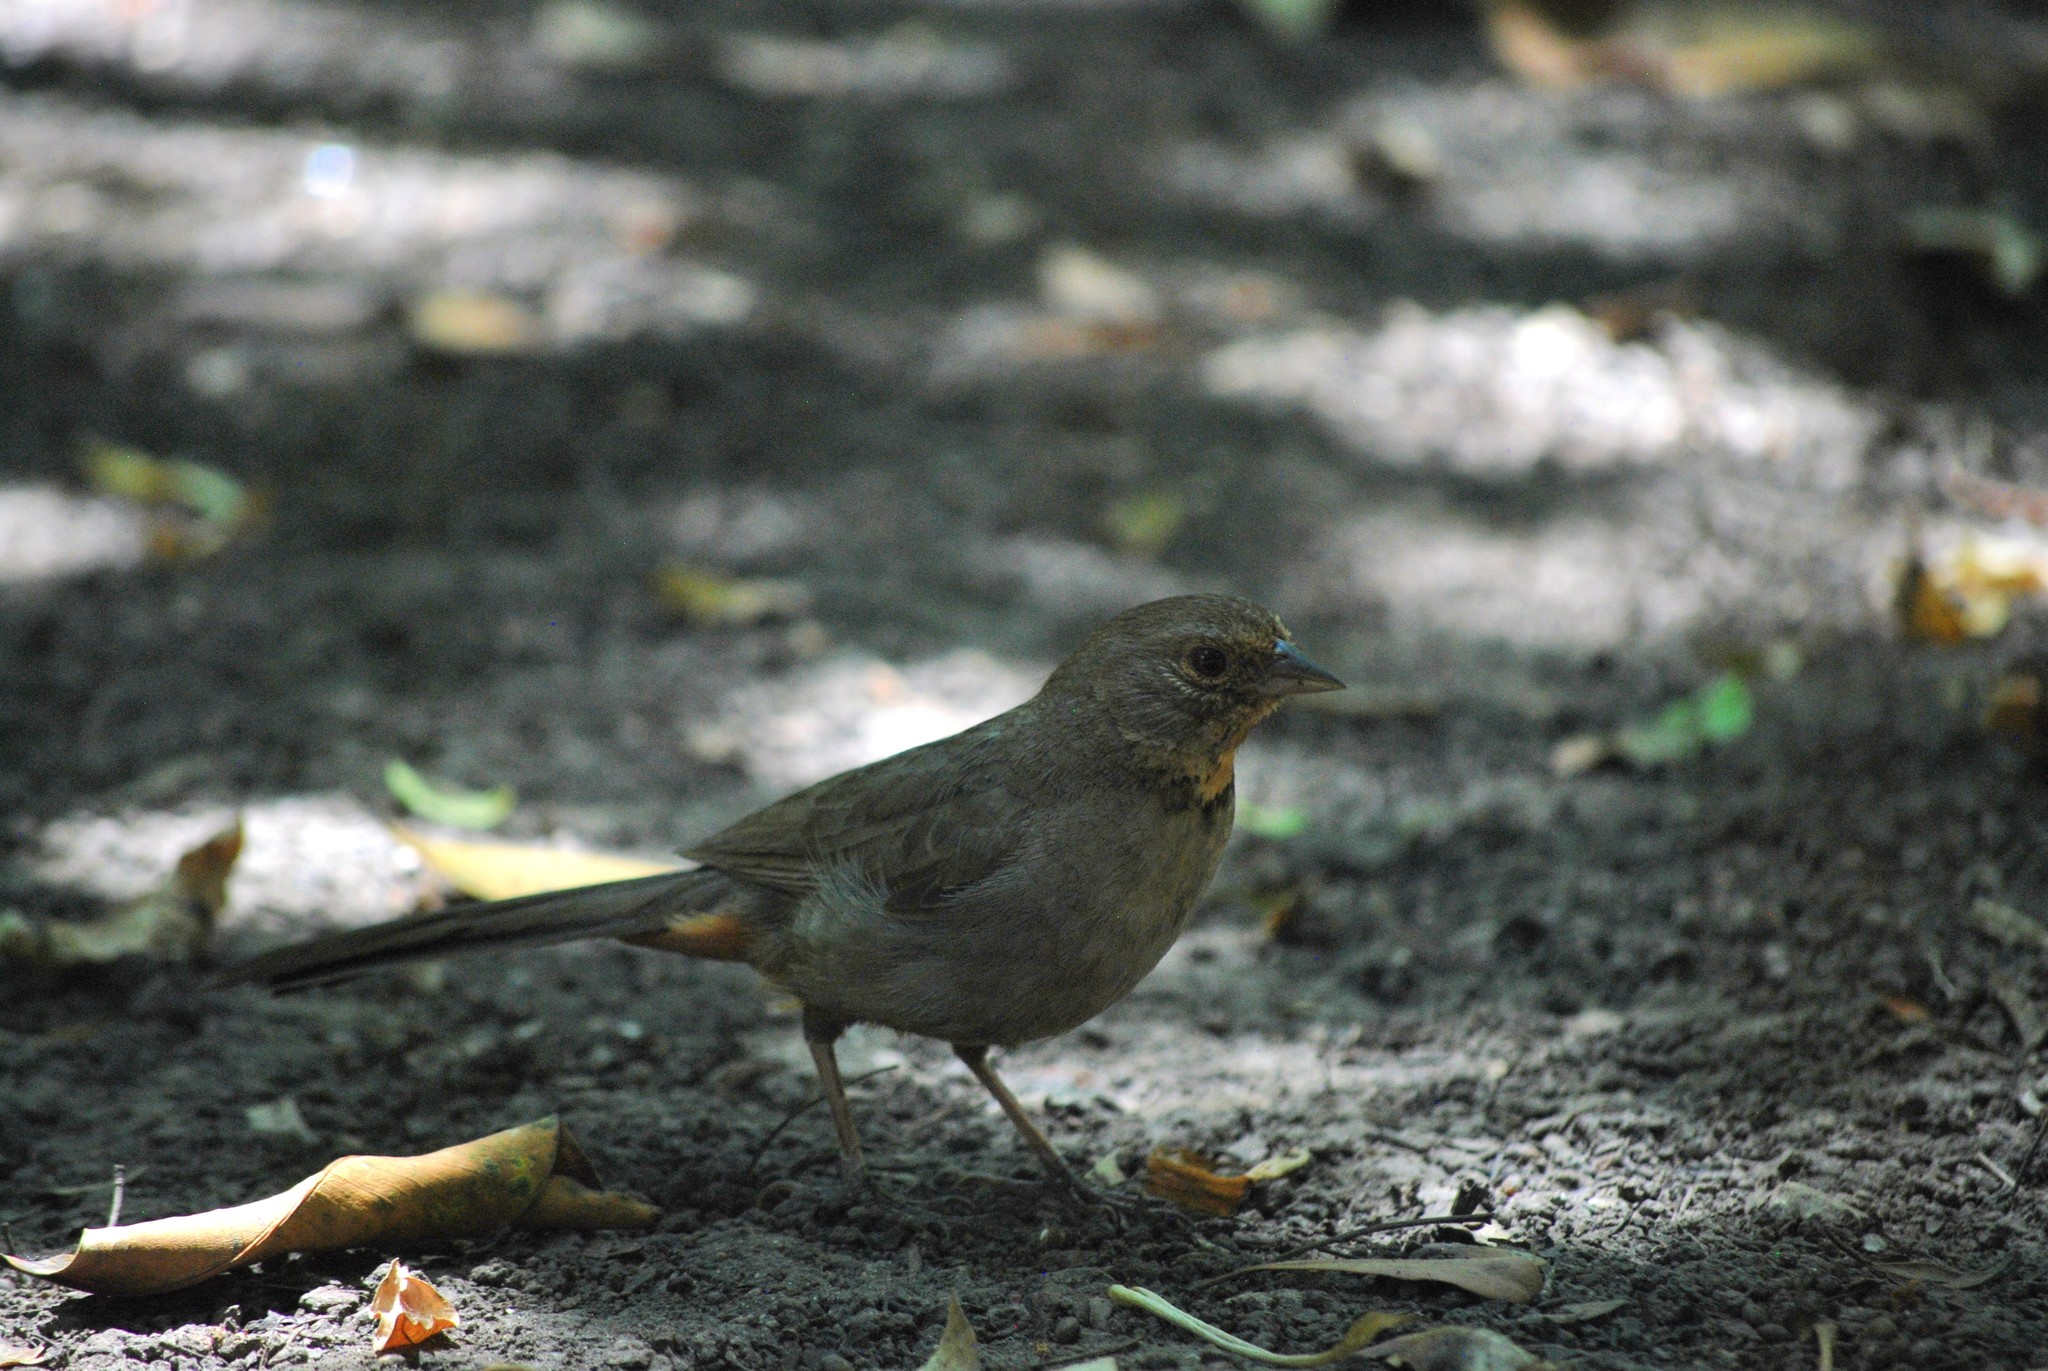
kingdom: Animalia
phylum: Chordata
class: Aves
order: Passeriformes
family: Passerellidae
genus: Melozone
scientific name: Melozone crissalis
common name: California towhee
